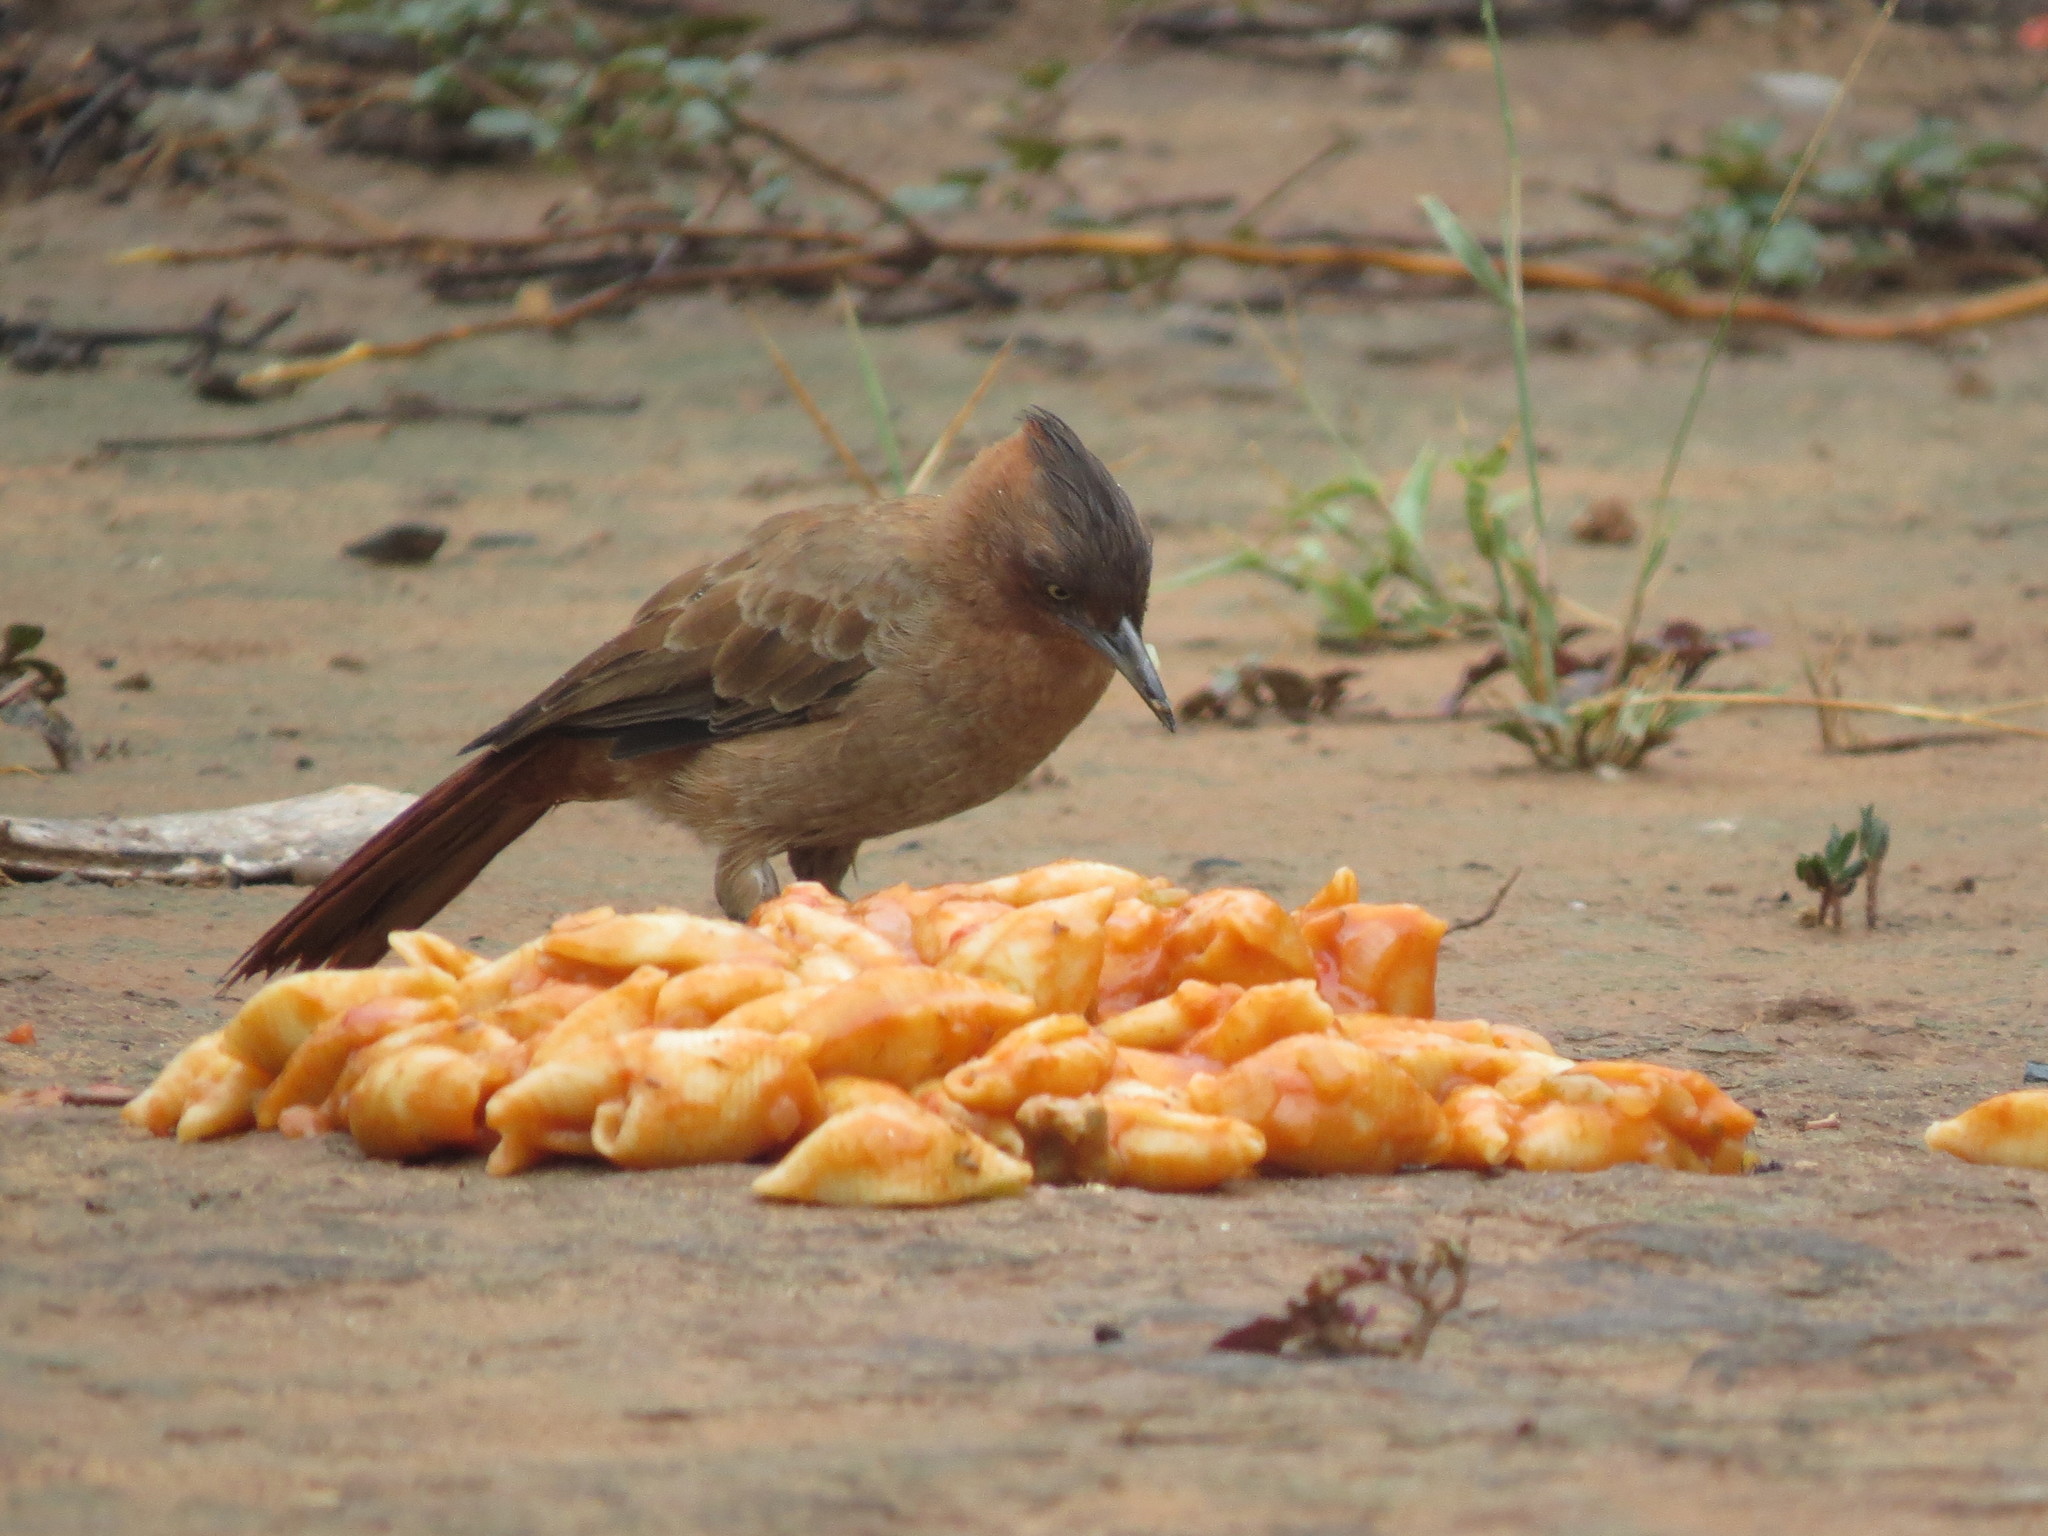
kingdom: Animalia
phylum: Chordata
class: Aves
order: Passeriformes
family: Furnariidae
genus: Pseudoseisura
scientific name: Pseudoseisura lophotes
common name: Brown cacholote
